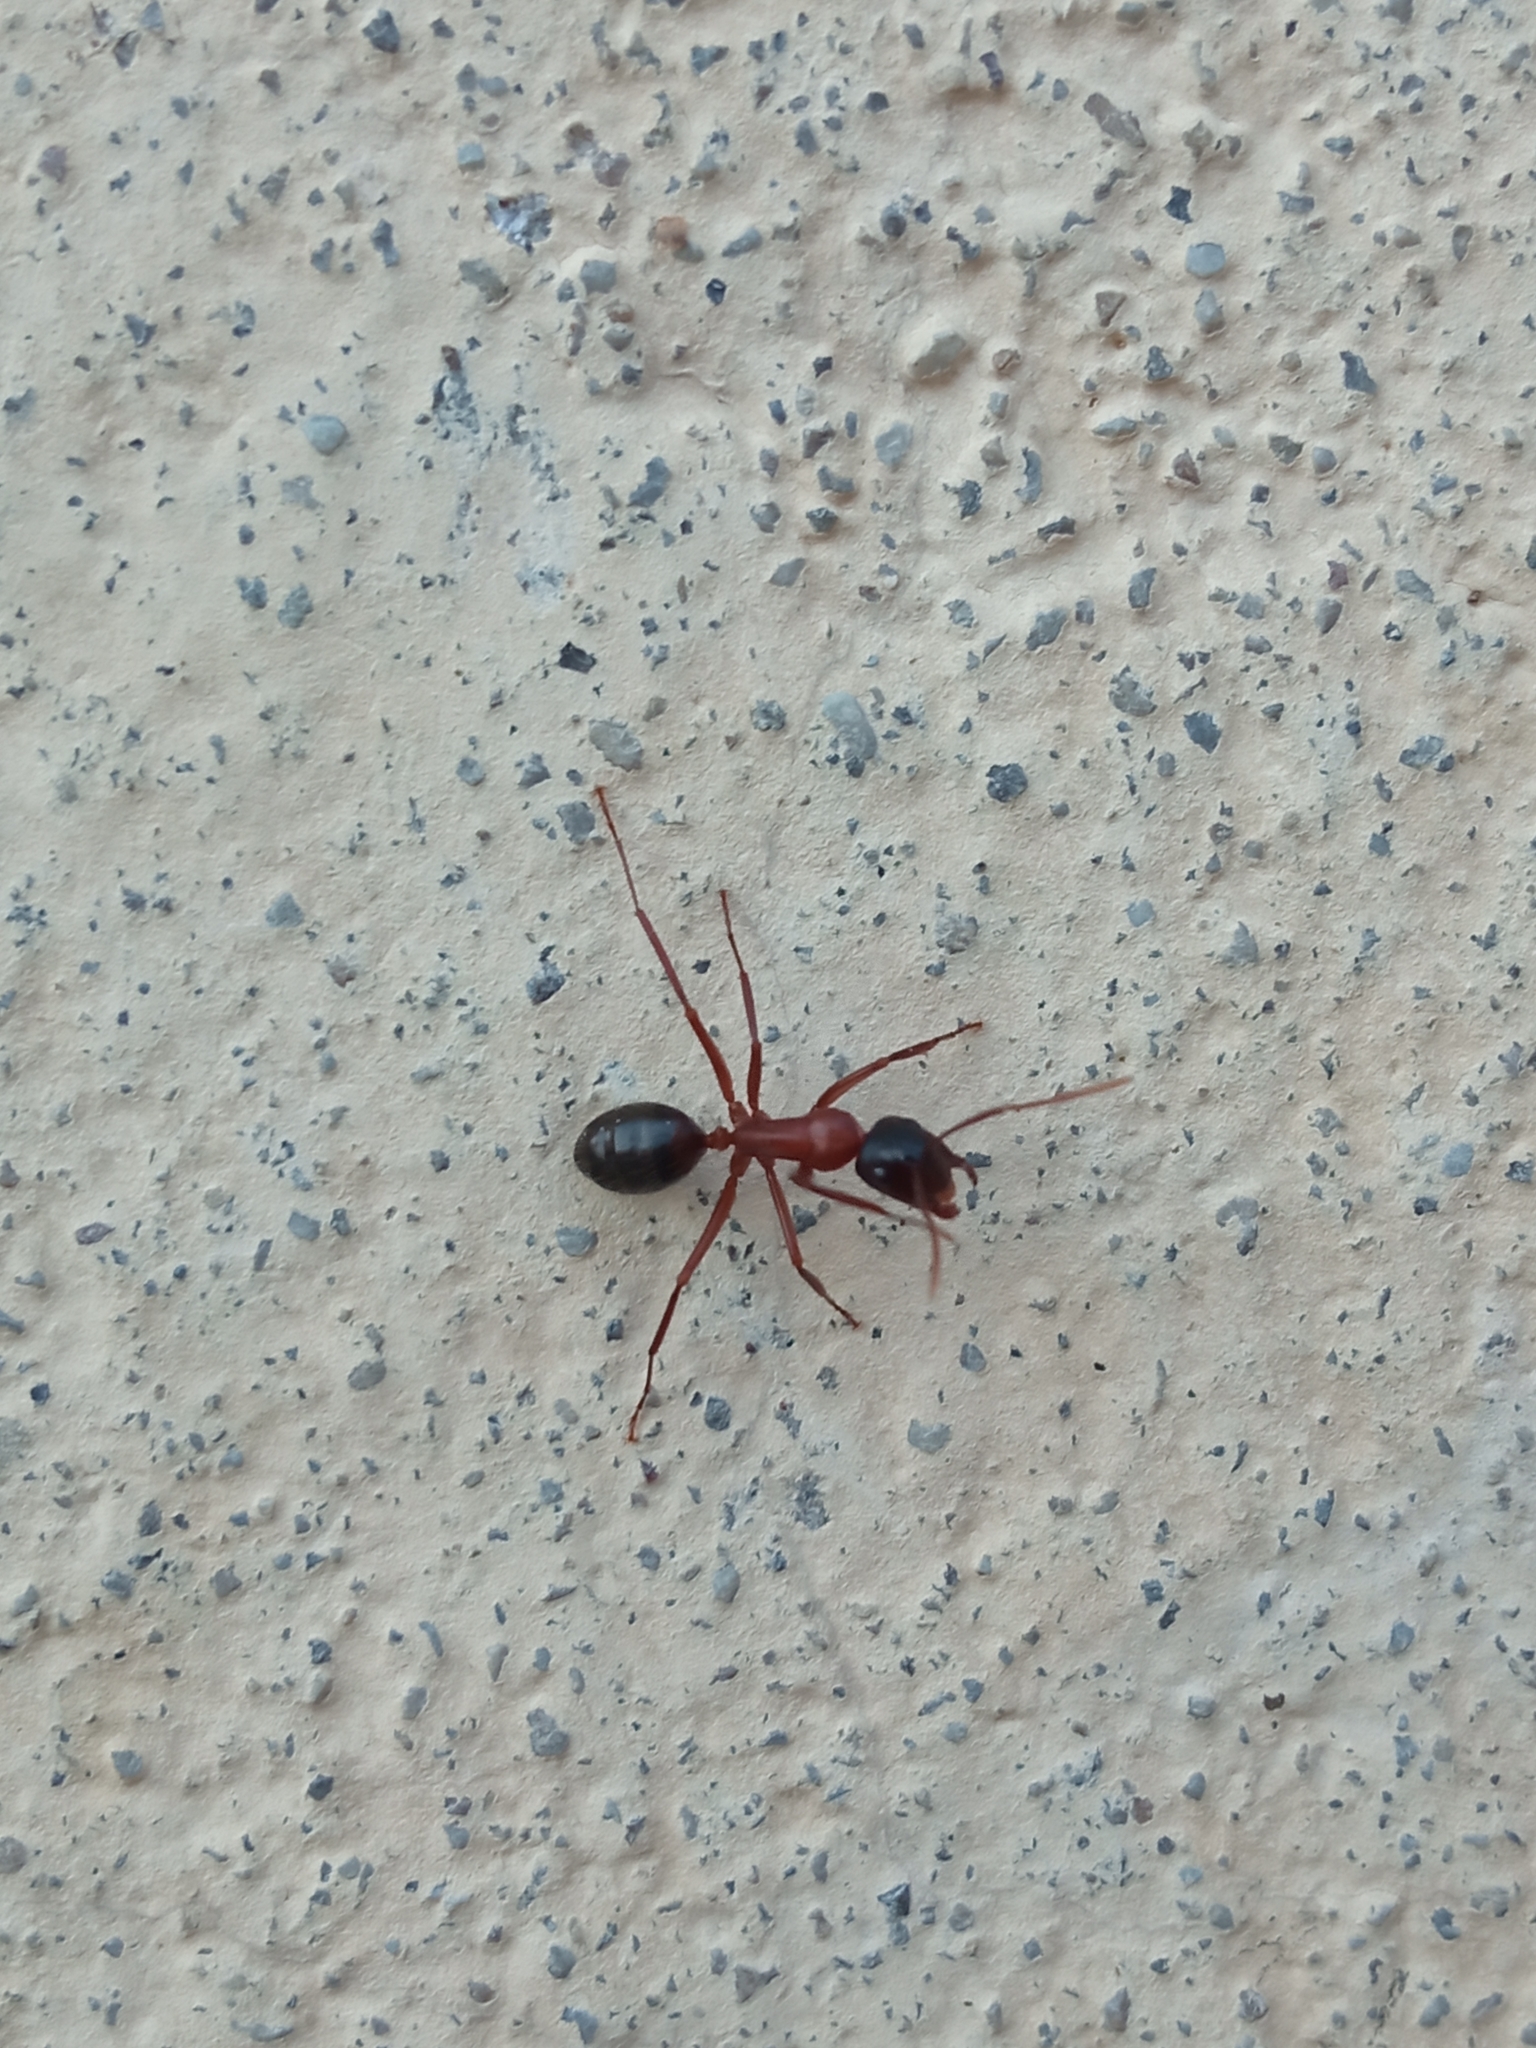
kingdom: Animalia
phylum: Arthropoda
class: Insecta
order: Hymenoptera
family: Formicidae
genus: Camponotus
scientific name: Camponotus ligniperdus
